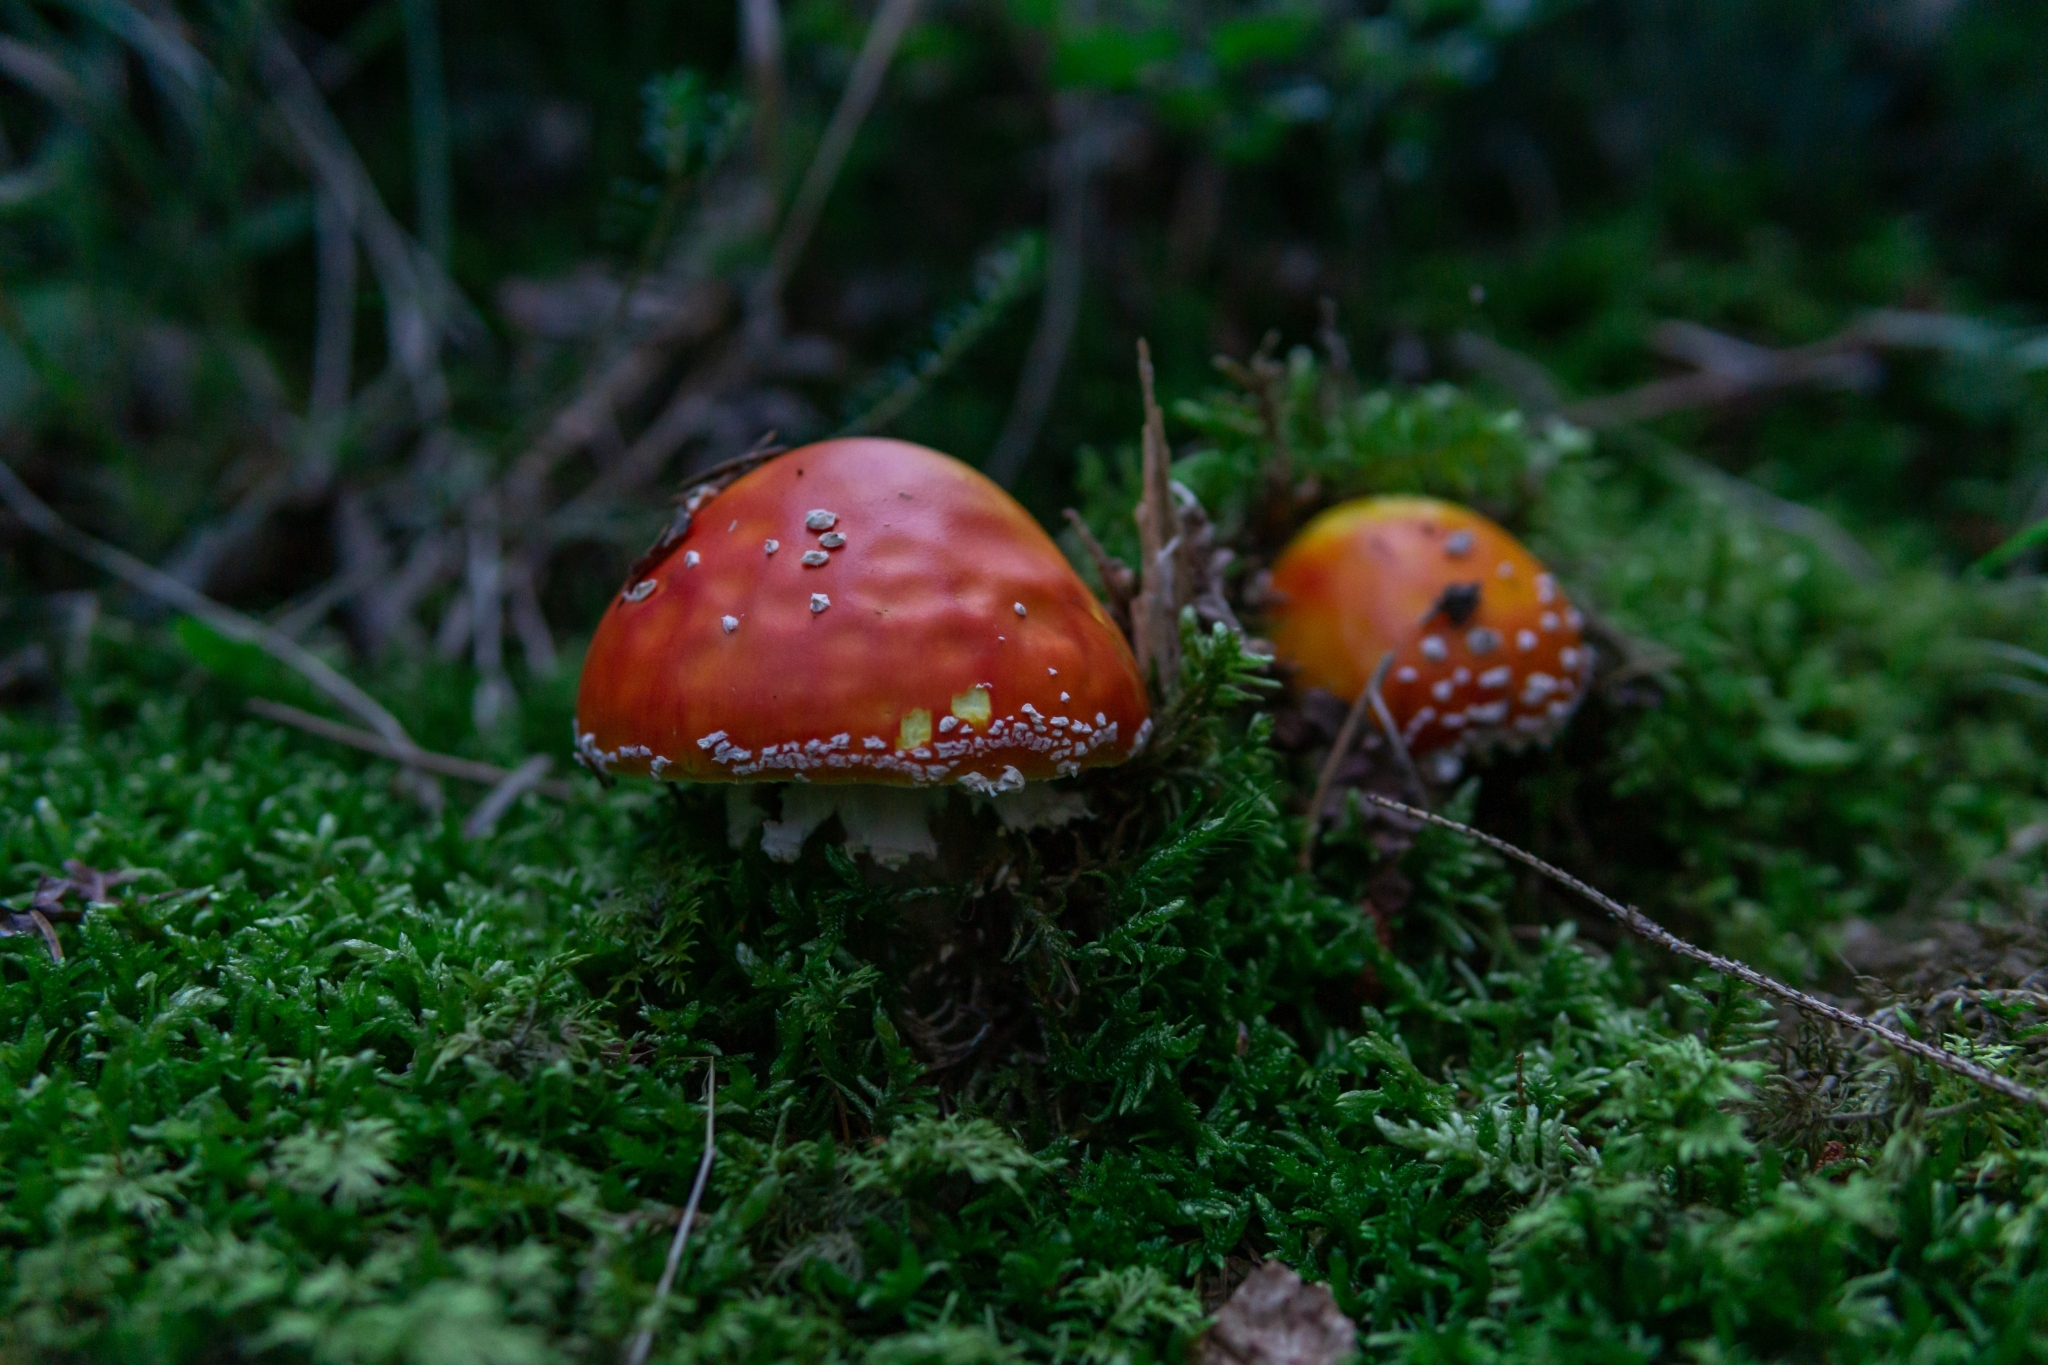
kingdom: Fungi
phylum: Basidiomycota
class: Agaricomycetes
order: Agaricales
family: Amanitaceae
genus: Amanita
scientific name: Amanita muscaria
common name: Fly agaric
